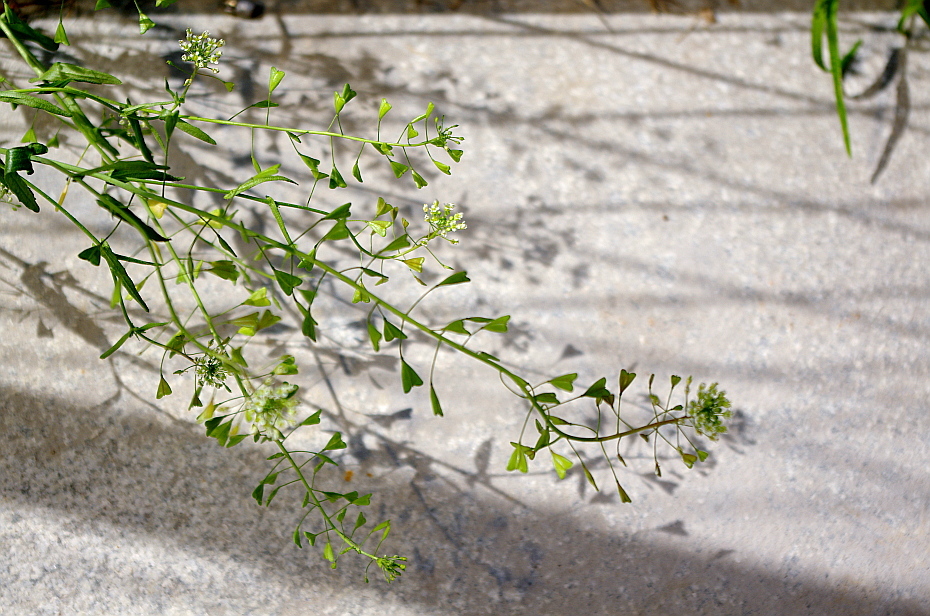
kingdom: Plantae
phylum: Tracheophyta
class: Magnoliopsida
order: Brassicales
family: Brassicaceae
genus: Capsella
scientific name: Capsella bursa-pastoris
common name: Shepherd's purse
